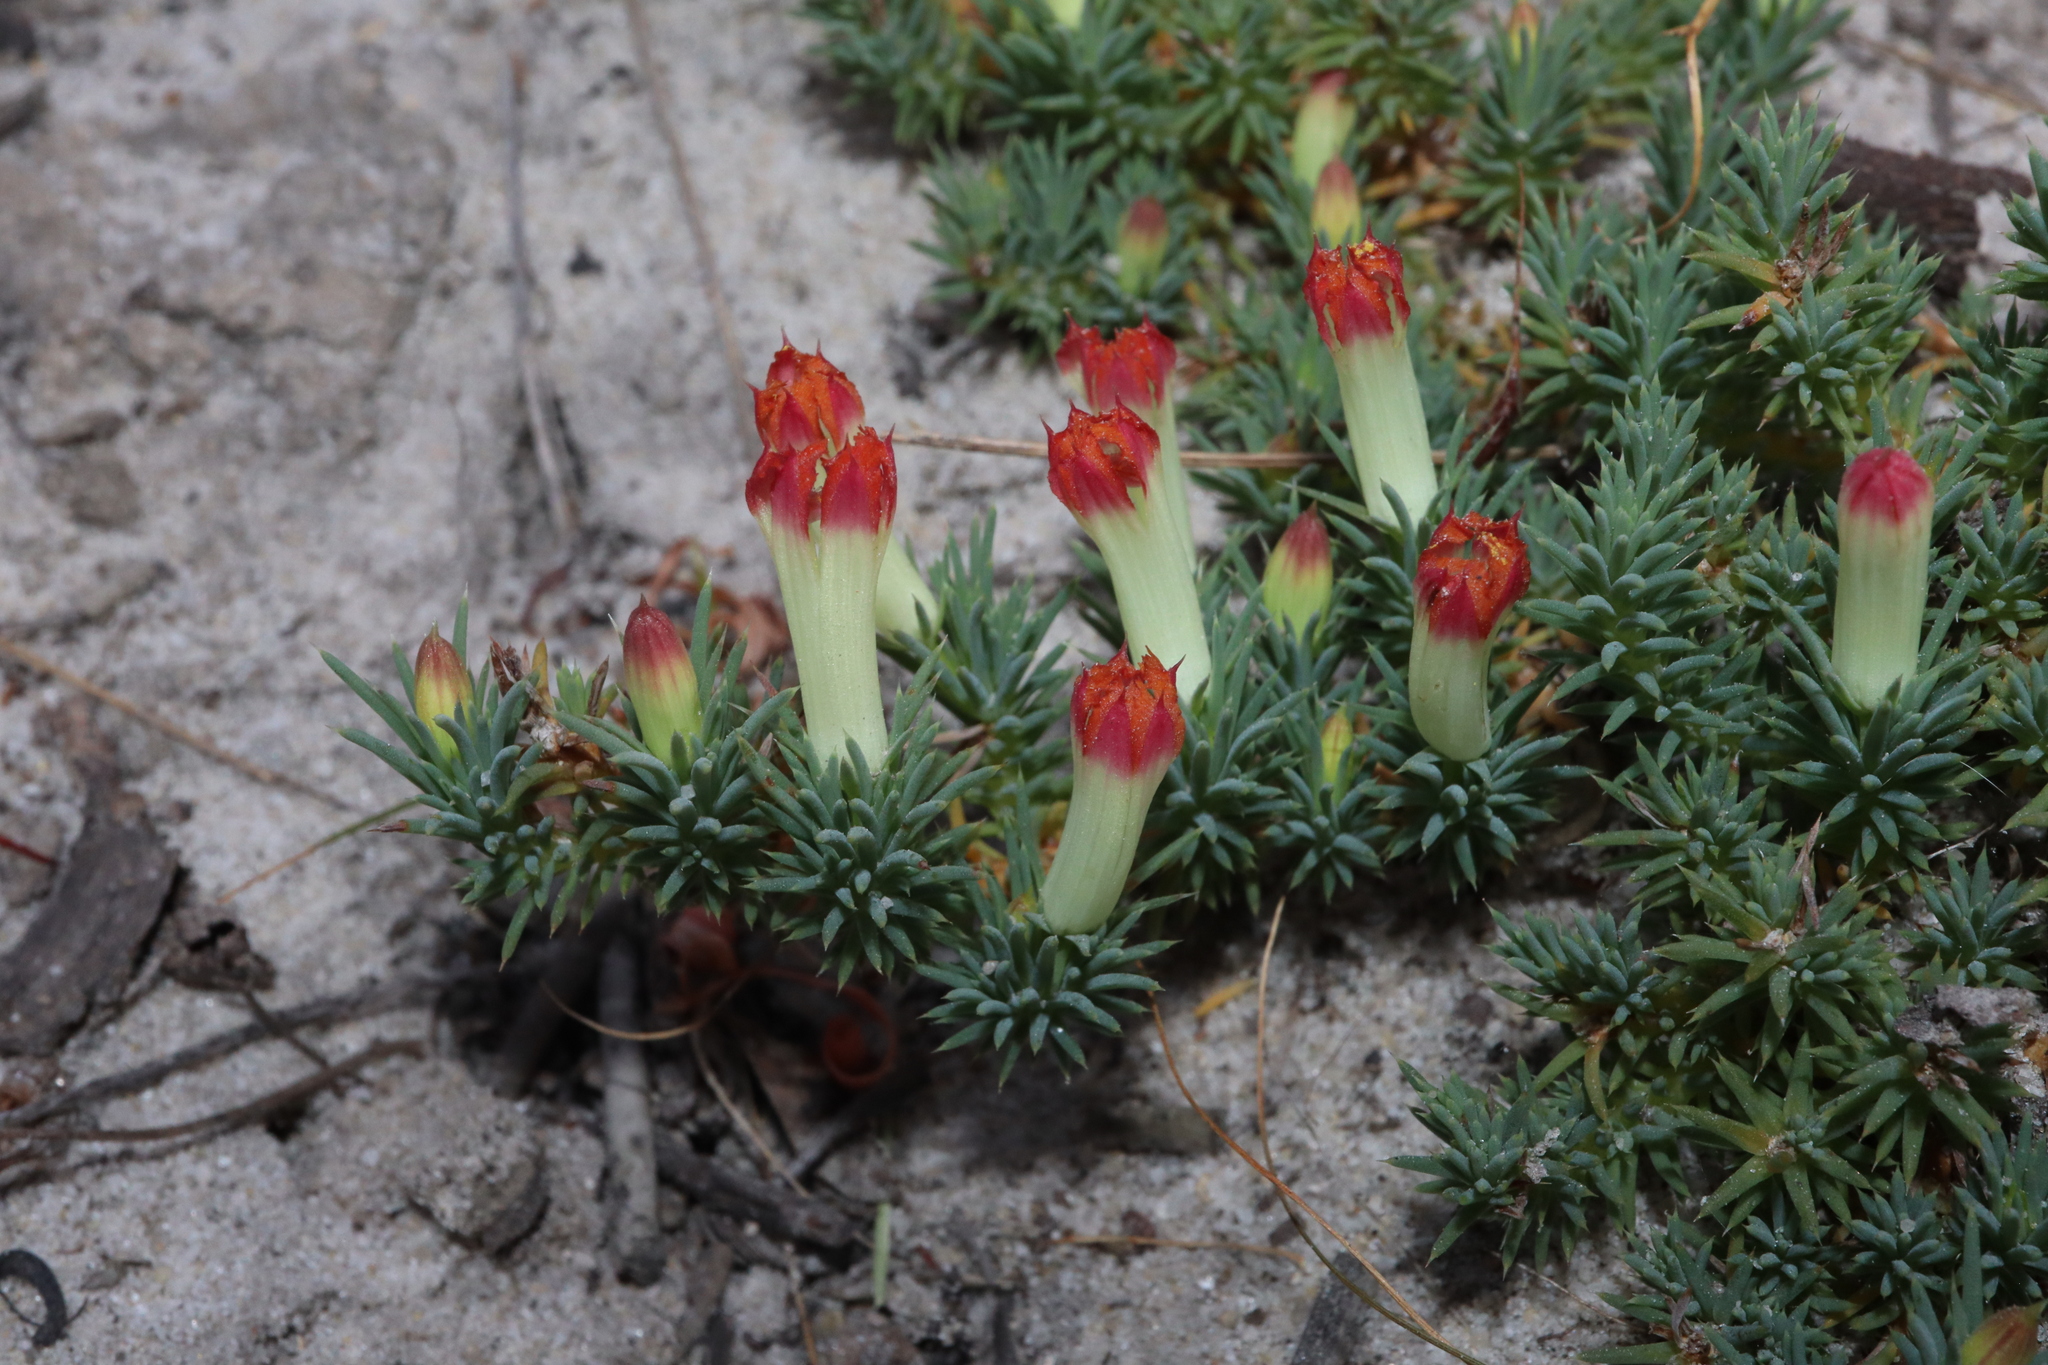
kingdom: Plantae
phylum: Tracheophyta
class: Magnoliopsida
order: Asterales
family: Goodeniaceae
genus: Lechenaultia
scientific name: Lechenaultia tubiflora
